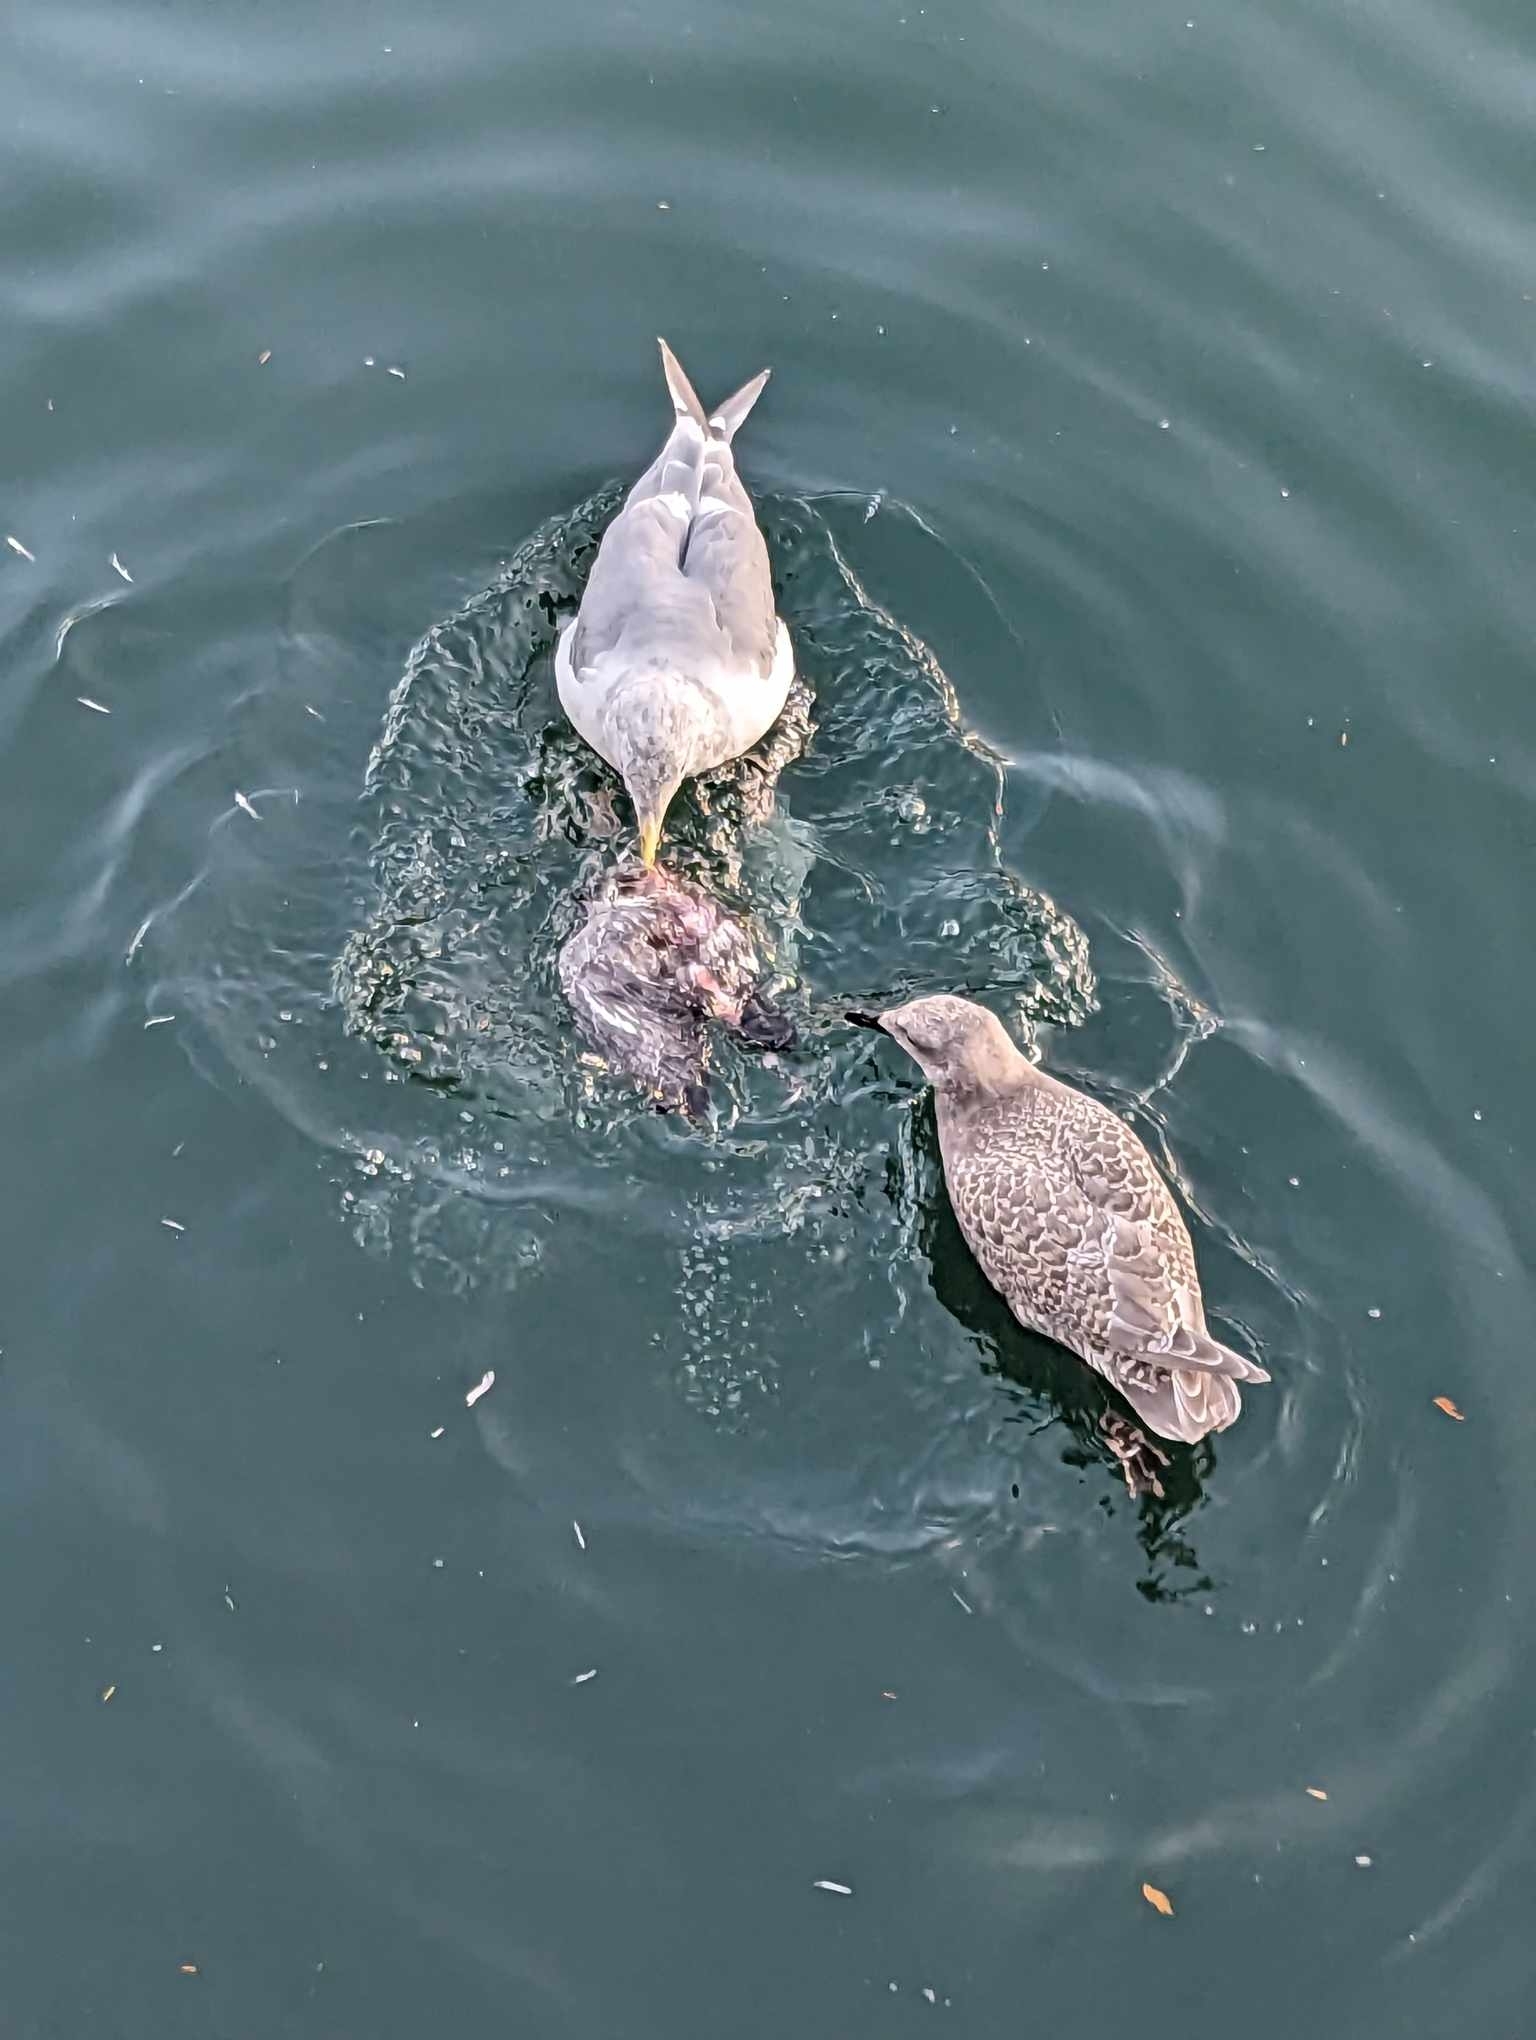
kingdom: Animalia
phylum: Chordata
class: Aves
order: Charadriiformes
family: Laridae
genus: Larus
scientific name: Larus glaucescens
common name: Glaucous-winged gull
